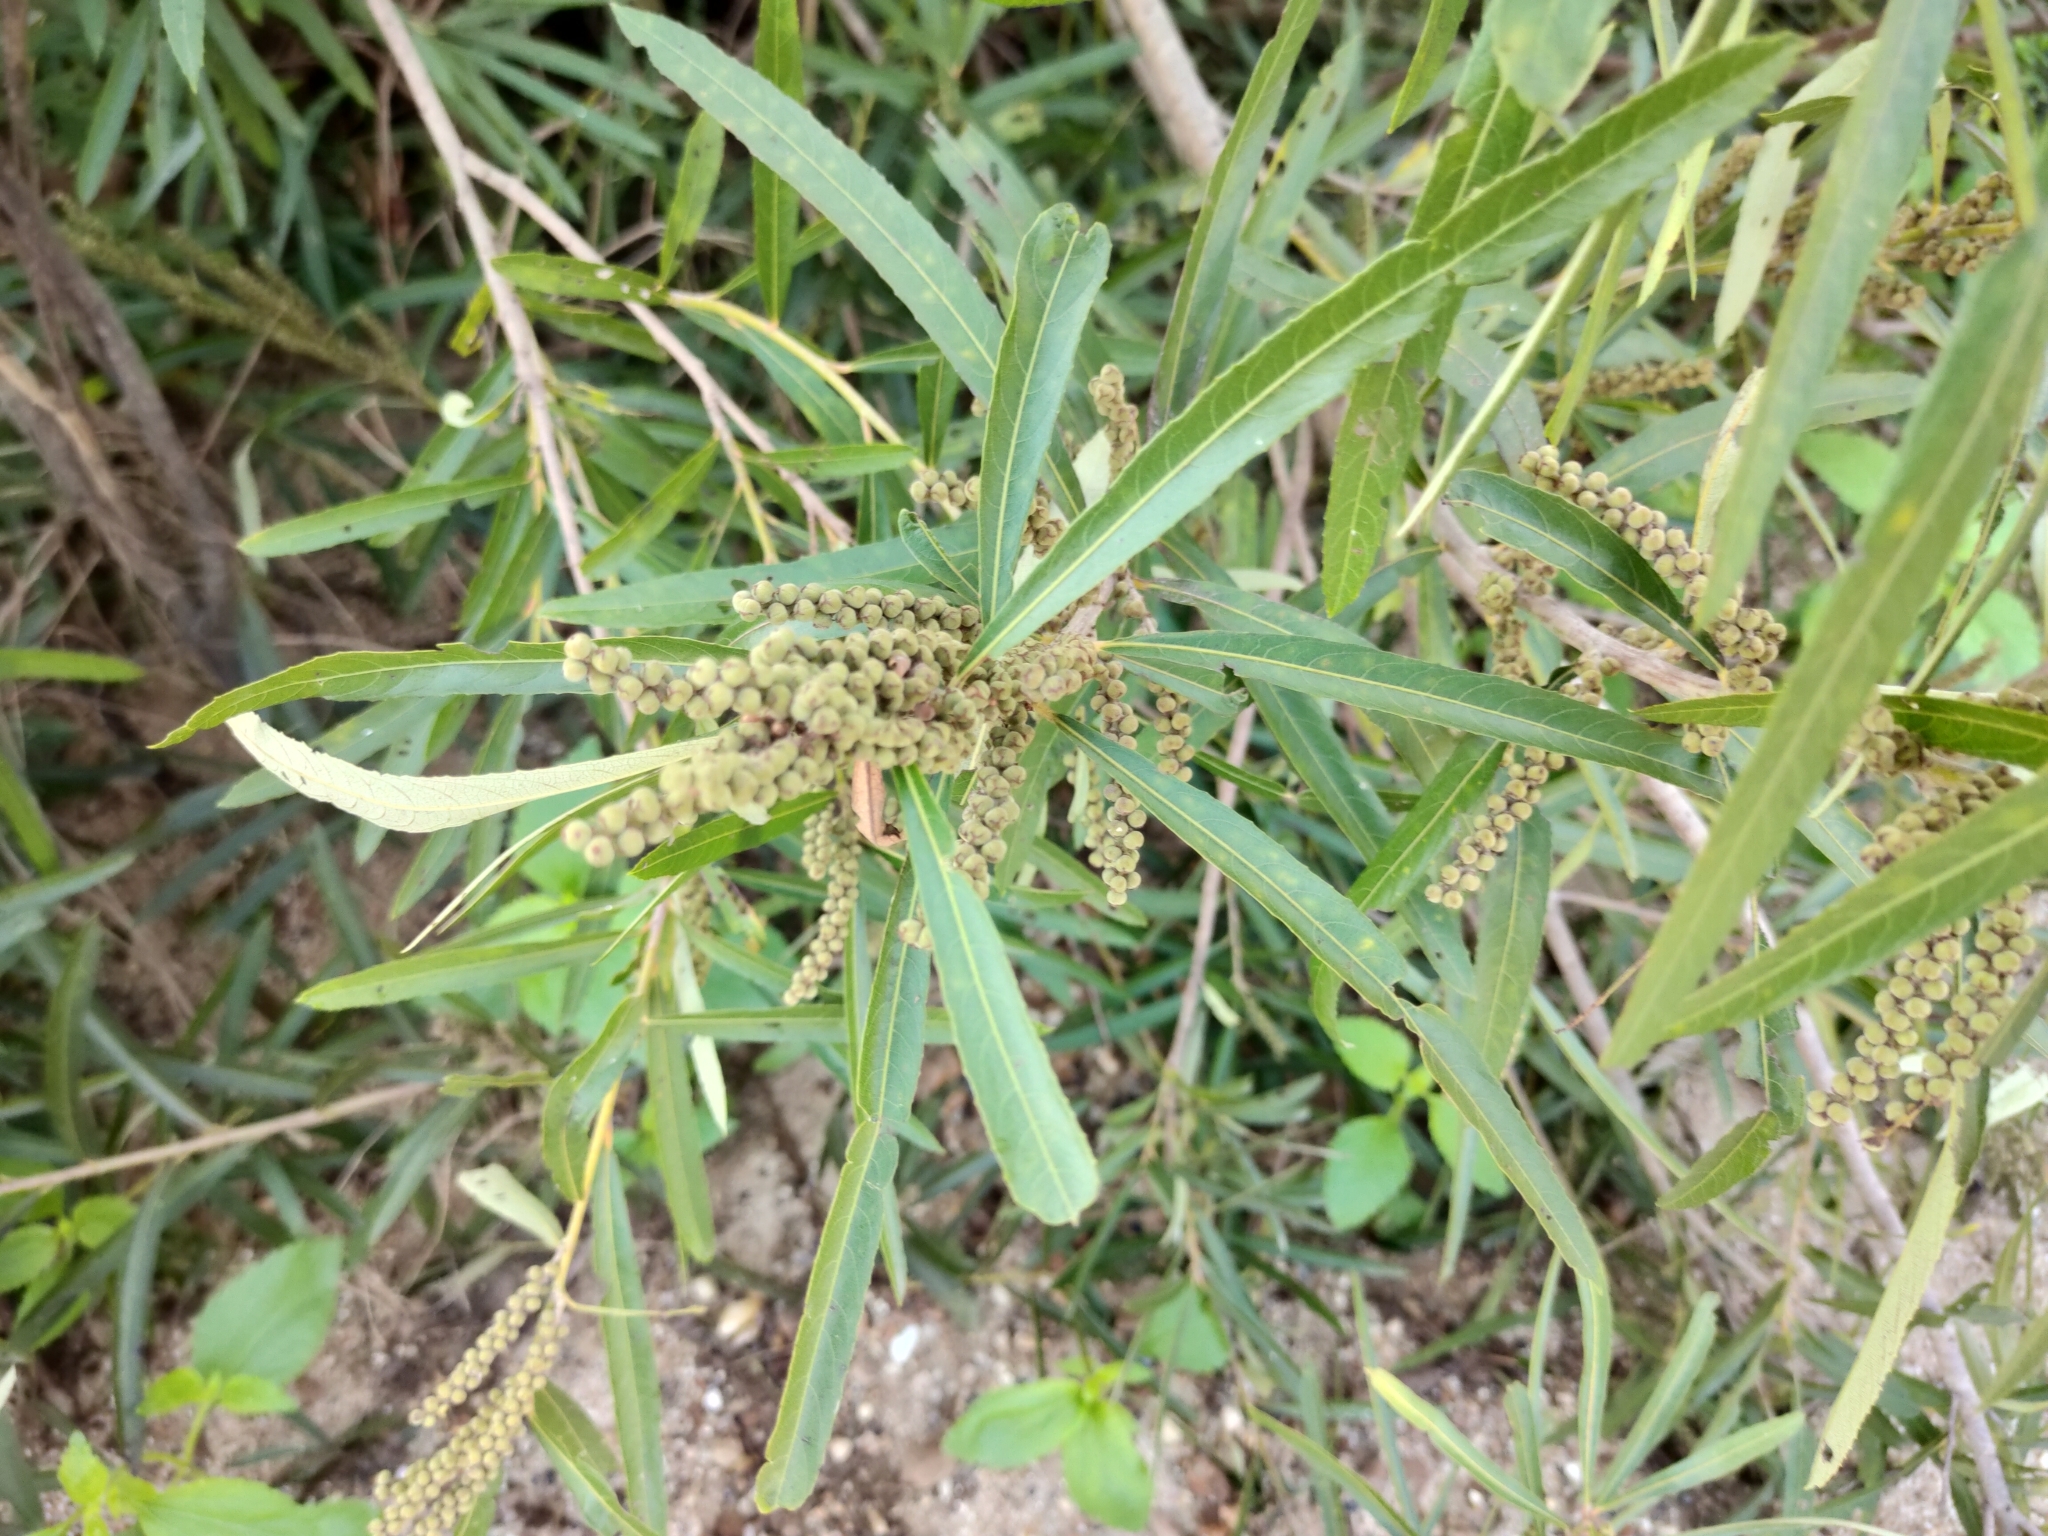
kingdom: Plantae
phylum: Tracheophyta
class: Magnoliopsida
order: Malpighiales
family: Euphorbiaceae
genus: Homonoia
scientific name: Homonoia riparia
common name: Willow-leaved water croton
